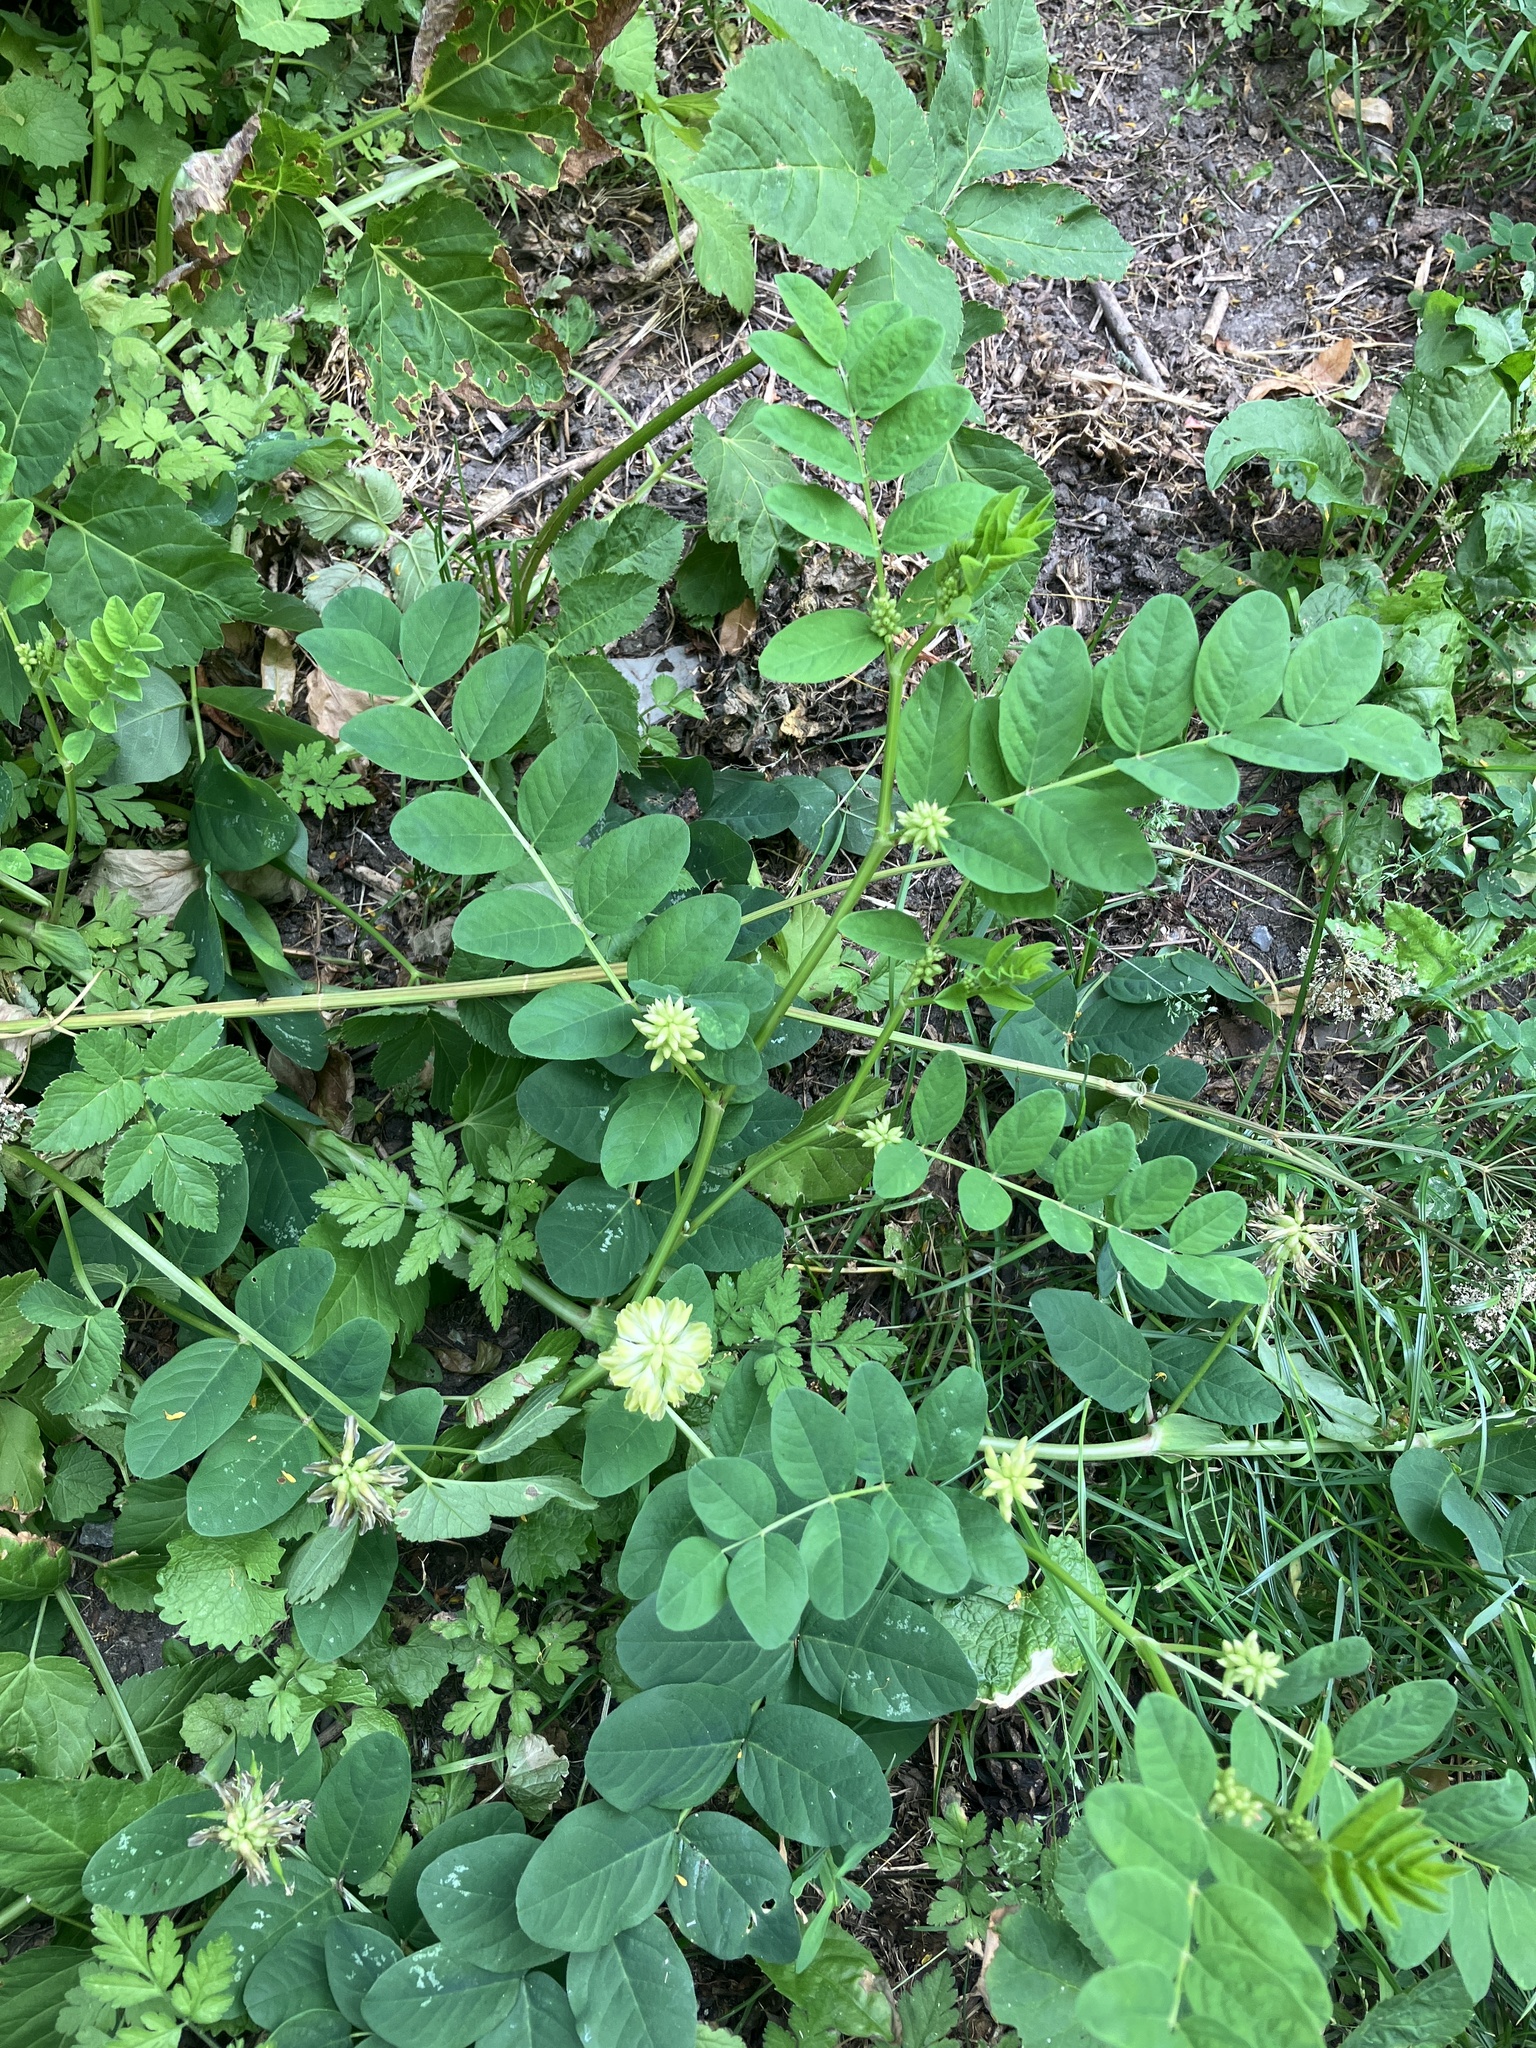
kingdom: Plantae
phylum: Tracheophyta
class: Magnoliopsida
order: Fabales
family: Fabaceae
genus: Astragalus
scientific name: Astragalus glycyphyllos
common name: Wild liquorice
